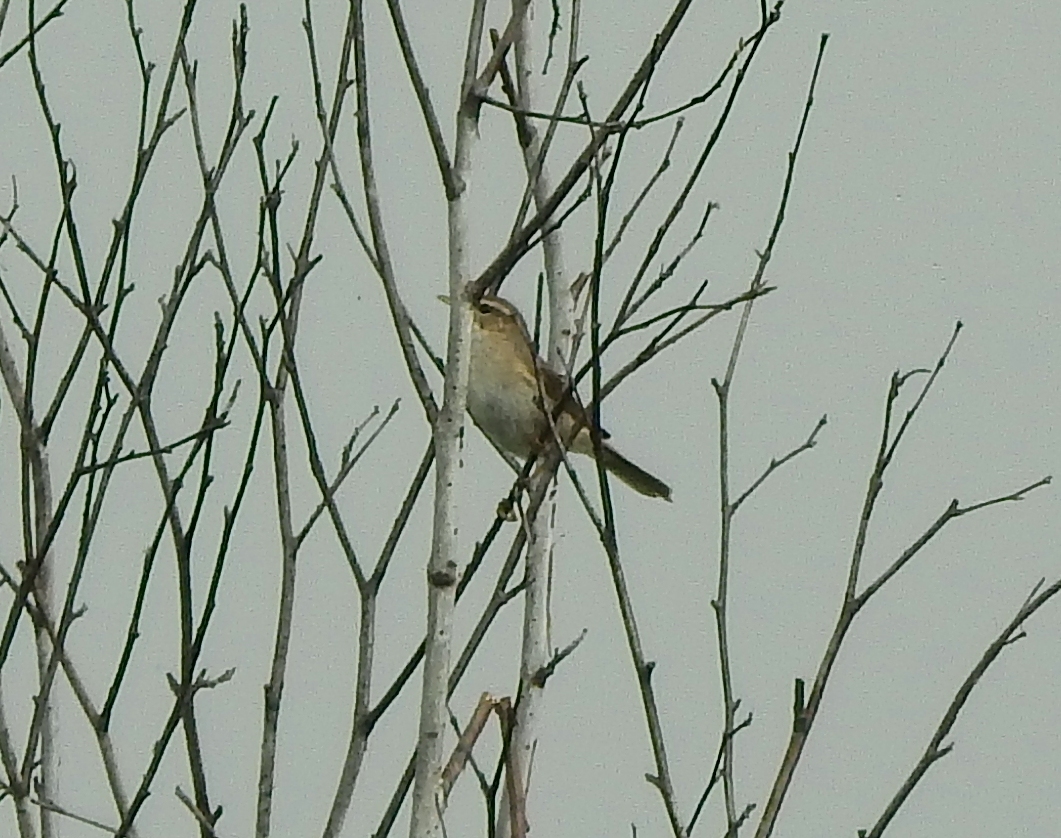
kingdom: Animalia
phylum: Chordata
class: Aves
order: Passeriformes
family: Phylloscopidae
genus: Phylloscopus
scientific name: Phylloscopus fuscatus
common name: Dusky warbler
